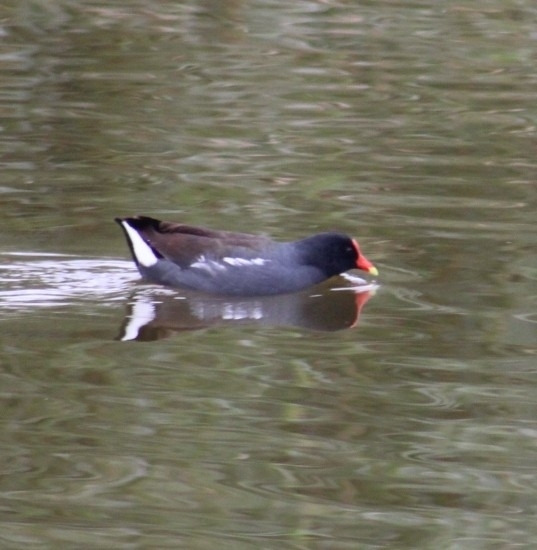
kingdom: Animalia
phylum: Chordata
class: Aves
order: Gruiformes
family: Rallidae
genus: Gallinula
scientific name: Gallinula chloropus
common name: Common moorhen
